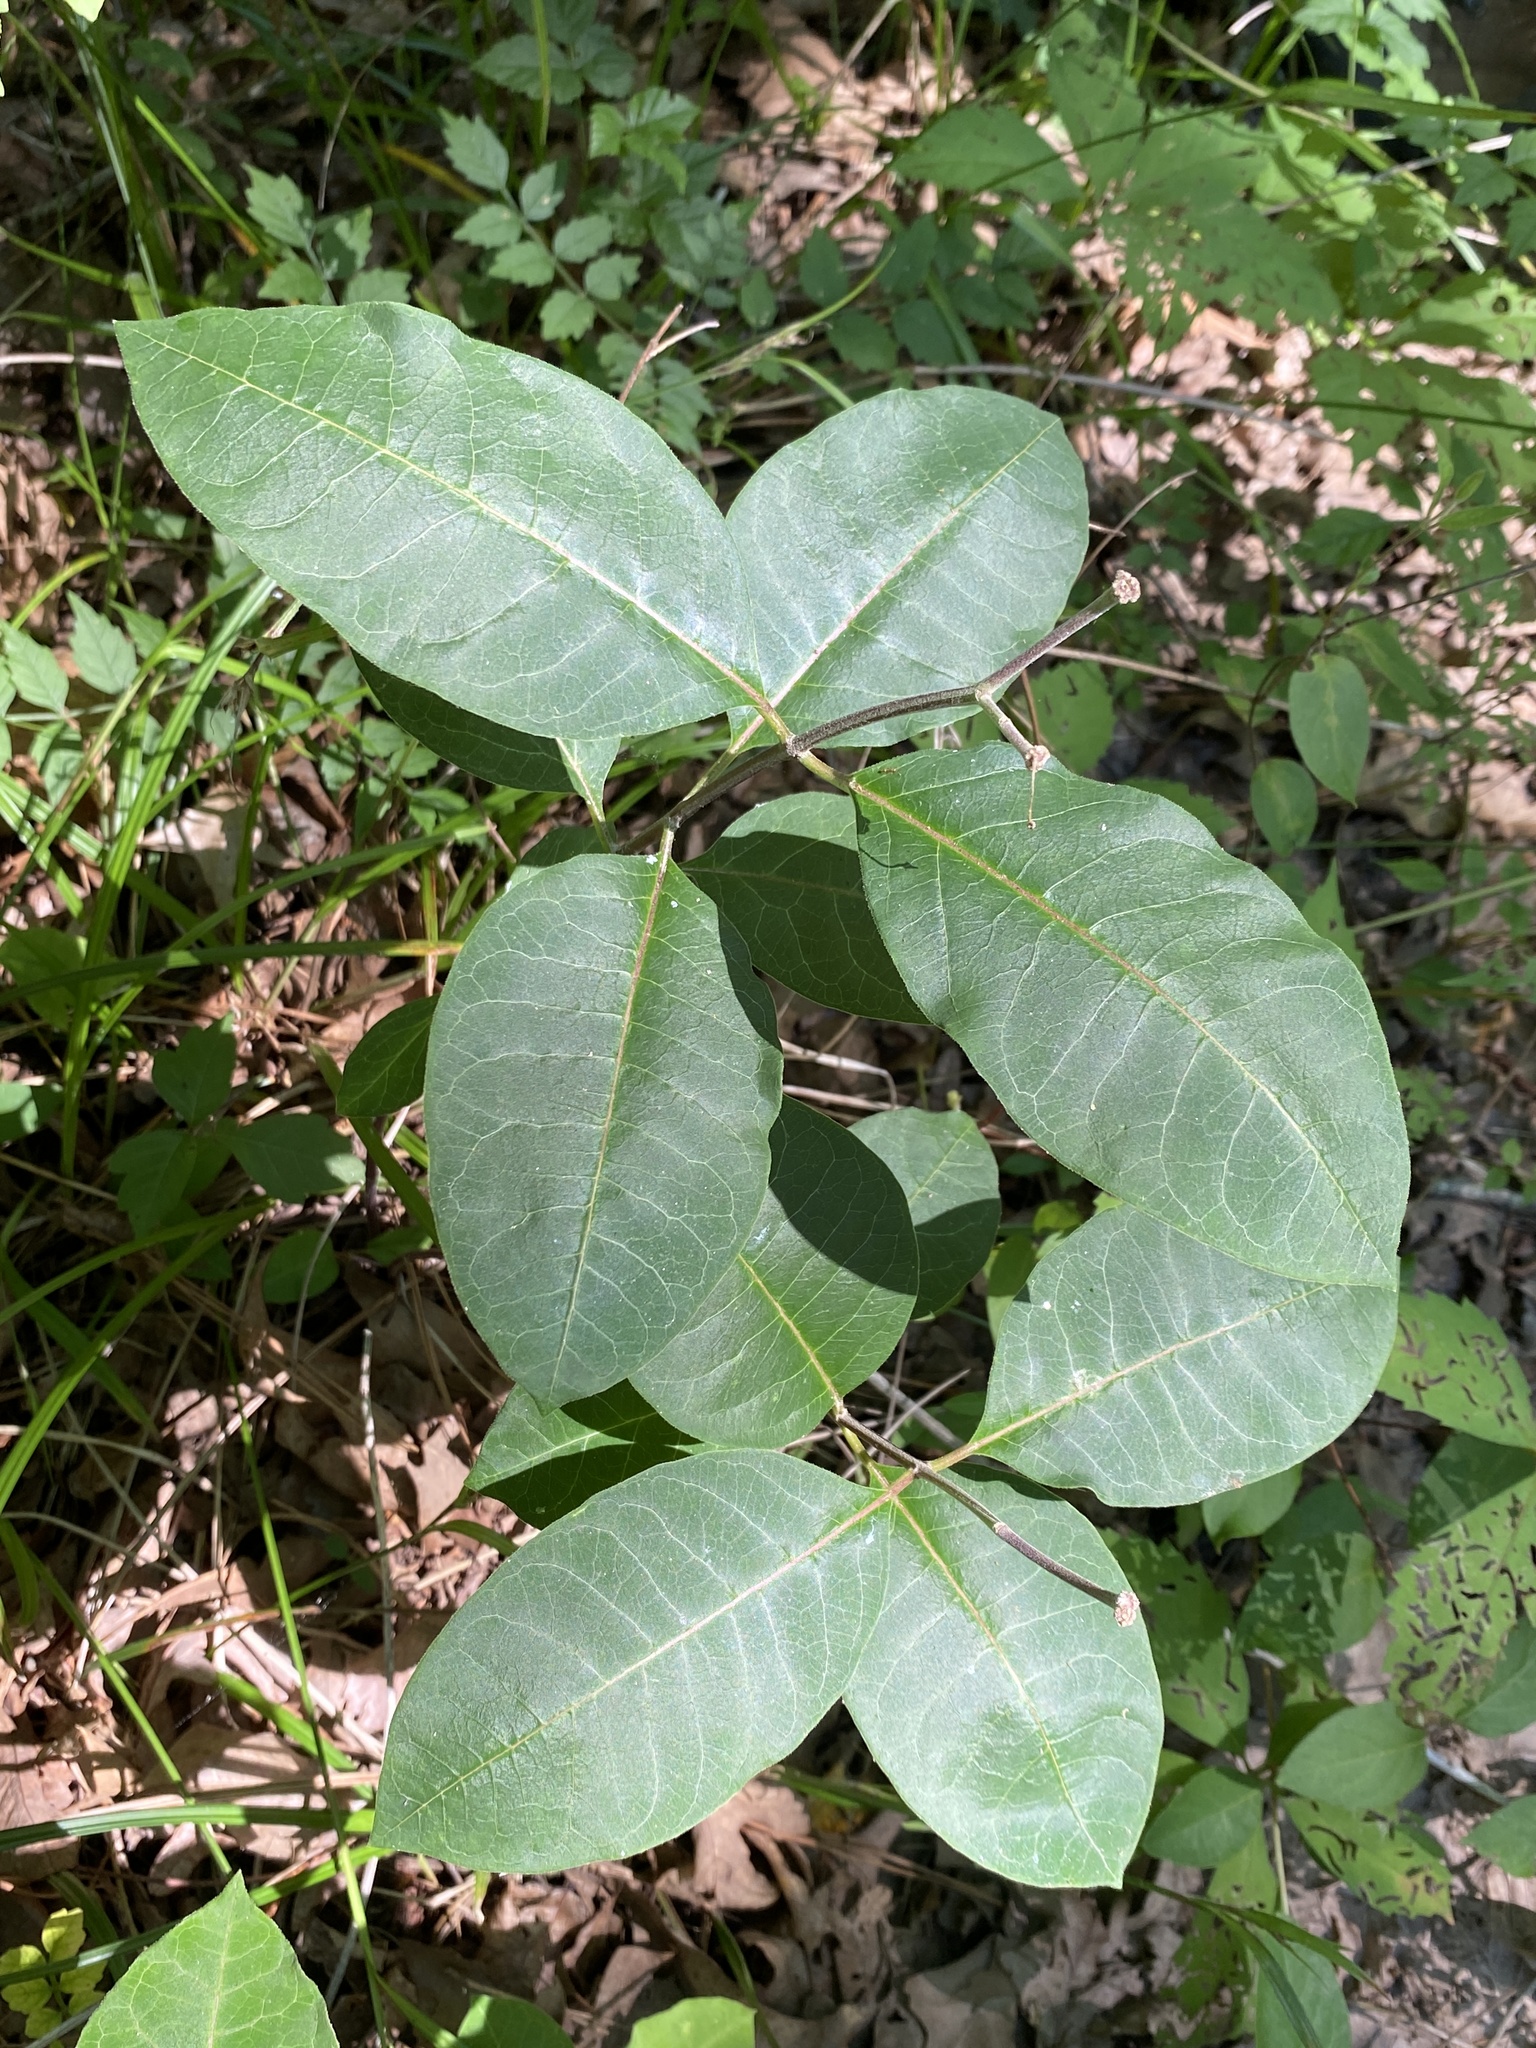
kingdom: Plantae
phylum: Tracheophyta
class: Magnoliopsida
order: Gentianales
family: Apocynaceae
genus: Asclepias
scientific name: Asclepias variegata
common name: Variegated milkweed
